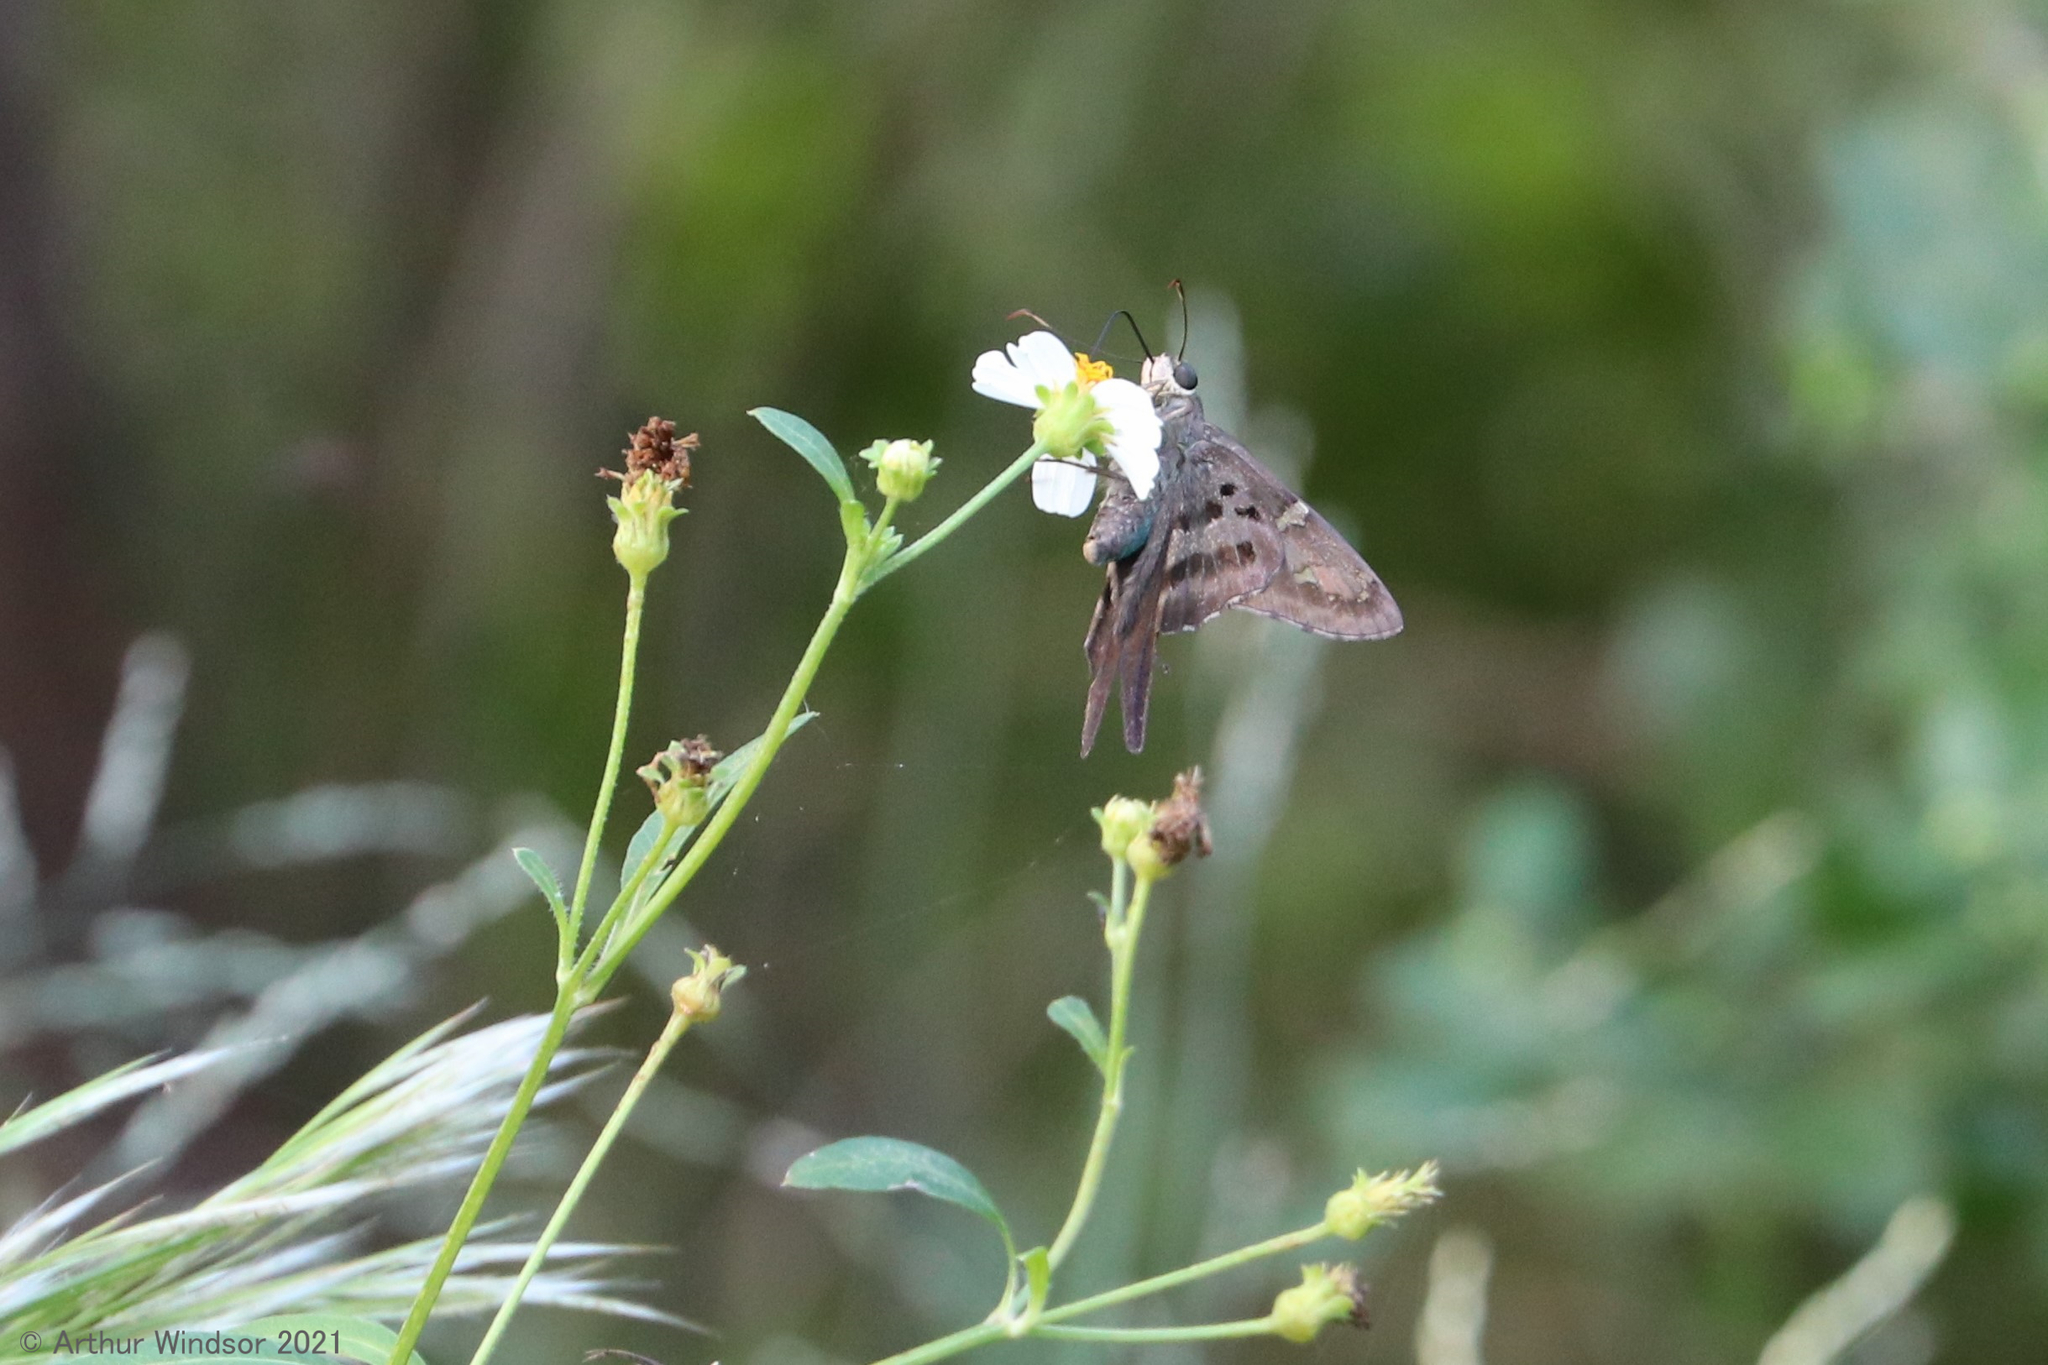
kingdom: Animalia
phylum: Arthropoda
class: Insecta
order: Lepidoptera
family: Hesperiidae
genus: Urbanus
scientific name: Urbanus proteus
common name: Long-tailed skipper
